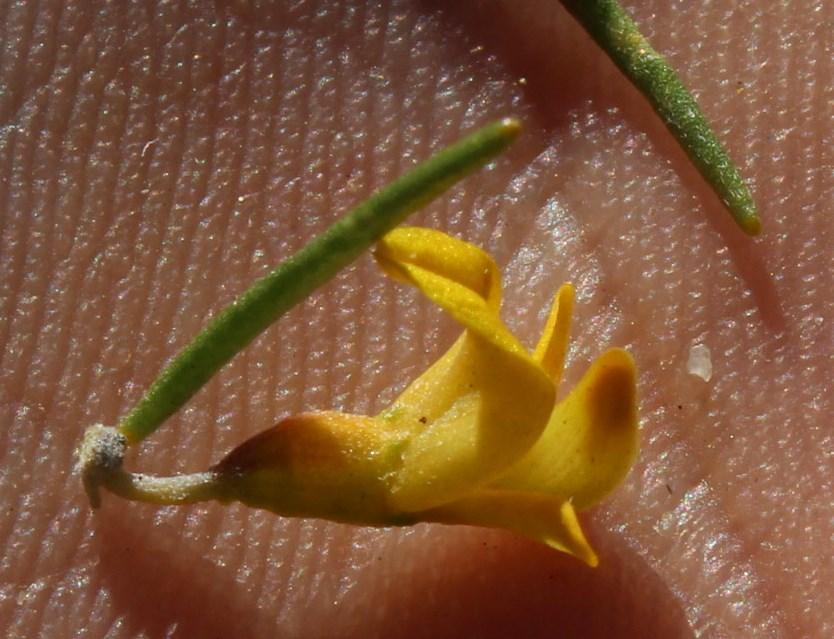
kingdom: Plantae
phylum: Tracheophyta
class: Magnoliopsida
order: Fabales
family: Fabaceae
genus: Aspalathus
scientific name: Aspalathus spinosa
